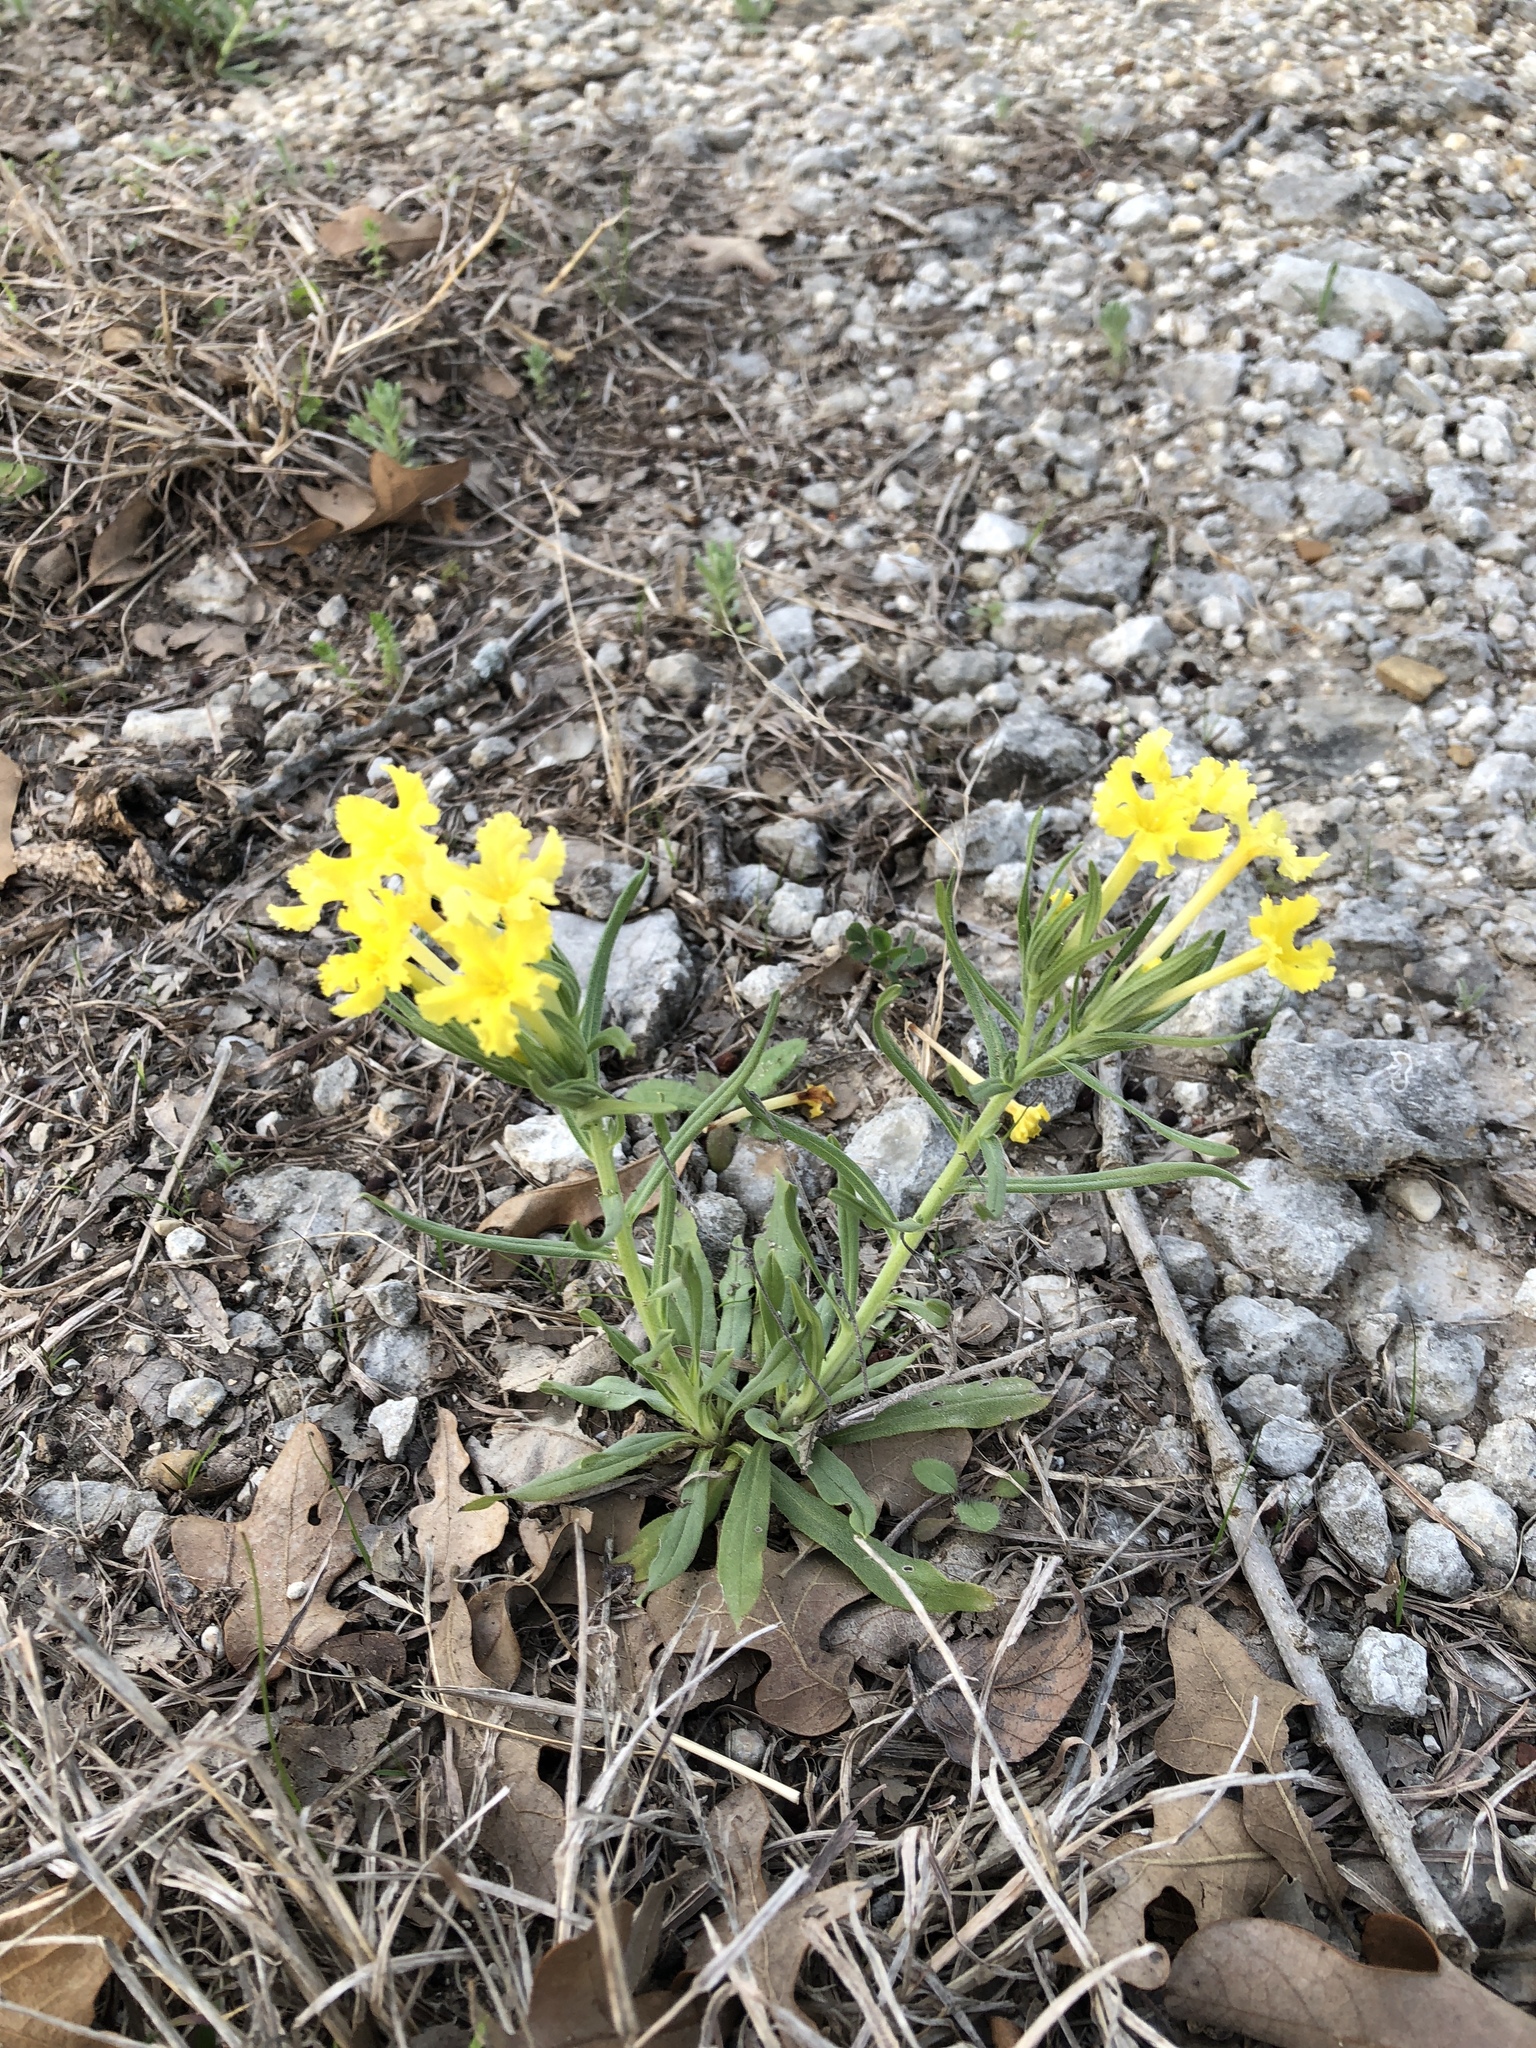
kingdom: Plantae
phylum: Tracheophyta
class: Magnoliopsida
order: Boraginales
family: Boraginaceae
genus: Lithospermum
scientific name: Lithospermum incisum
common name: Fringed gromwell
